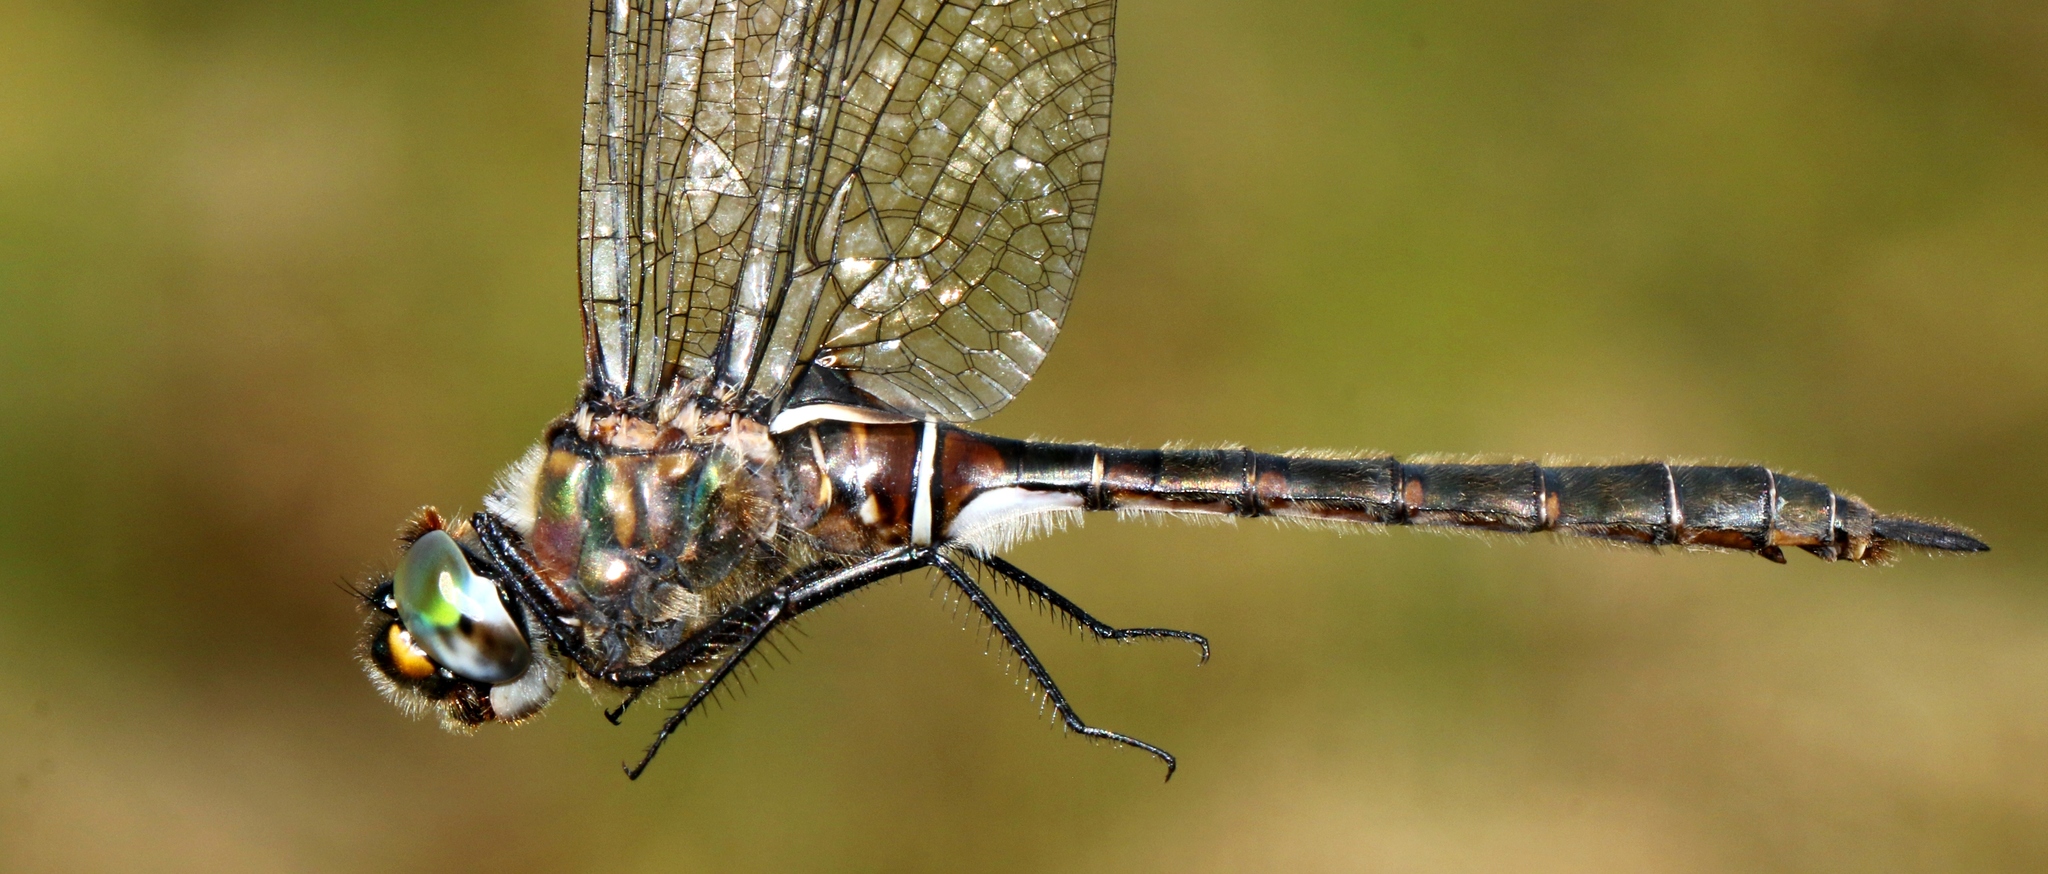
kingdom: Animalia
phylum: Arthropoda
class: Insecta
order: Odonata
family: Corduliidae
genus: Somatochlora
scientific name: Somatochlora septentrionalis
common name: Muskeg emerald
